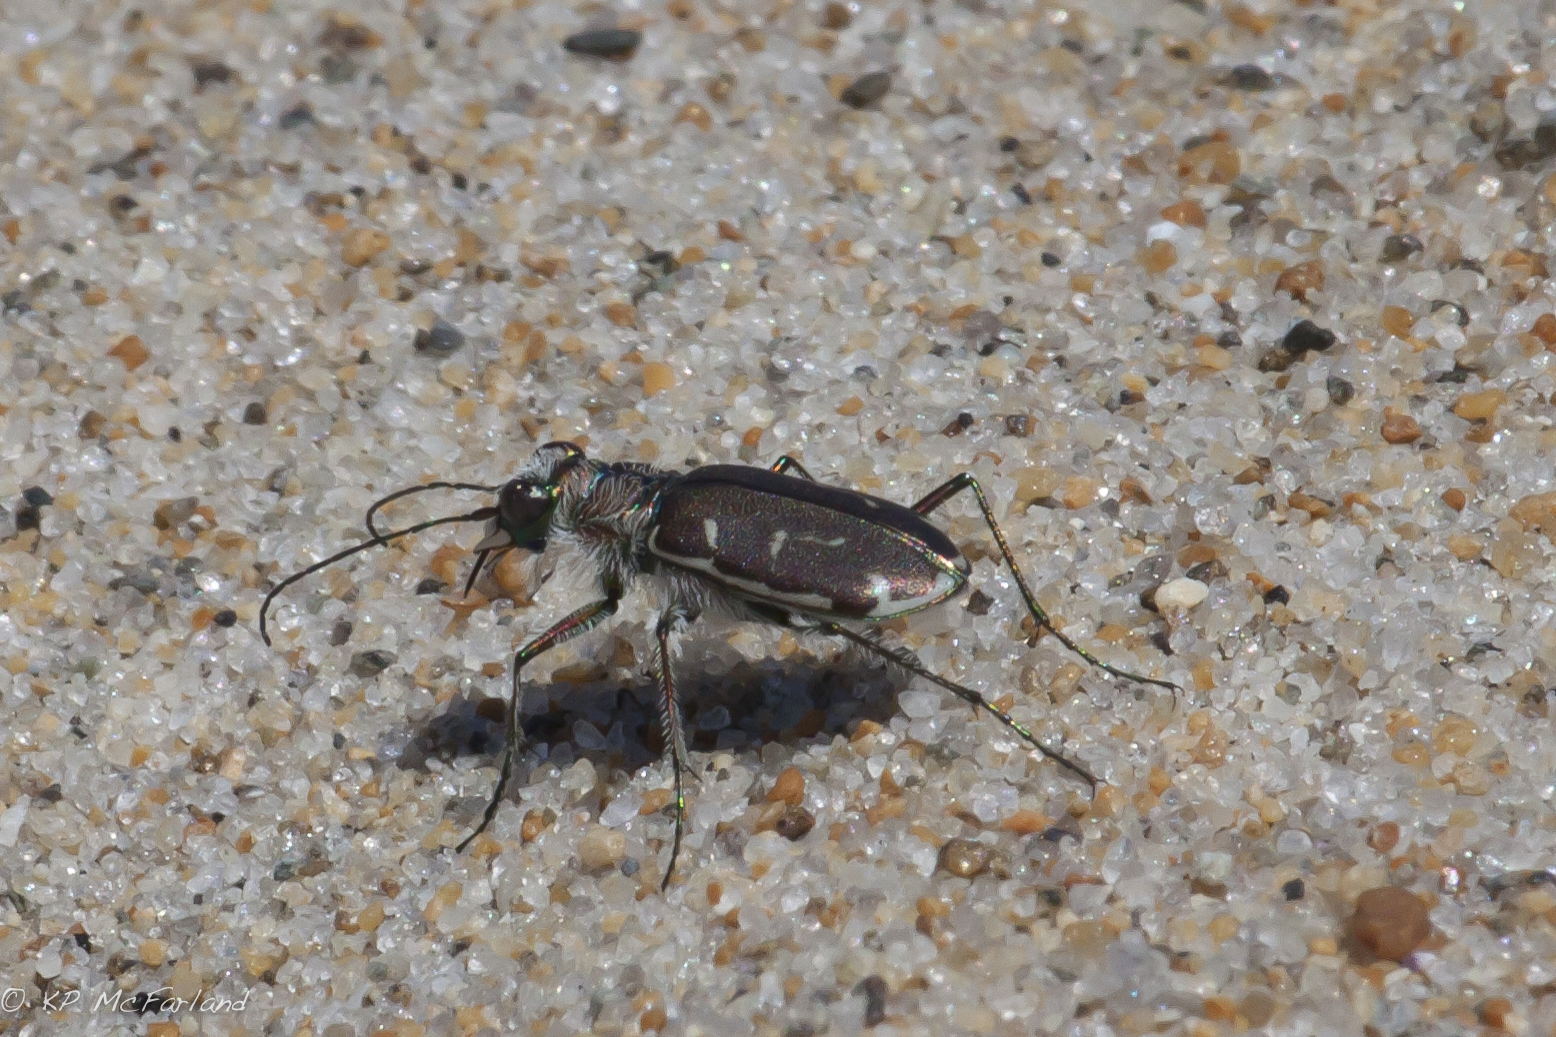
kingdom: Animalia
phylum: Arthropoda
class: Insecta
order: Coleoptera
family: Carabidae
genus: Cicindela
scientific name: Cicindela hirticollis
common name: Hairy-necked tiger beetle
